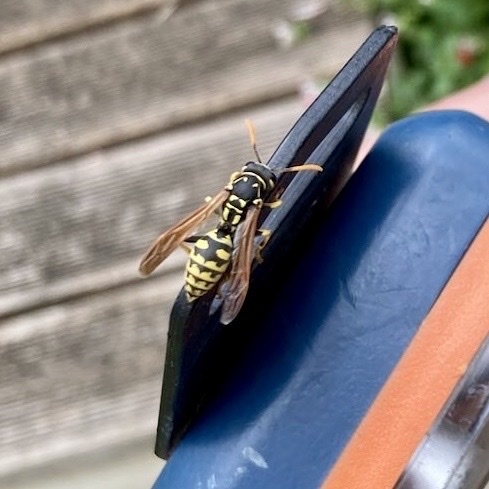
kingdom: Animalia
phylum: Arthropoda
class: Insecta
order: Hymenoptera
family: Eumenidae
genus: Polistes
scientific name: Polistes dominula
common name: Paper wasp
